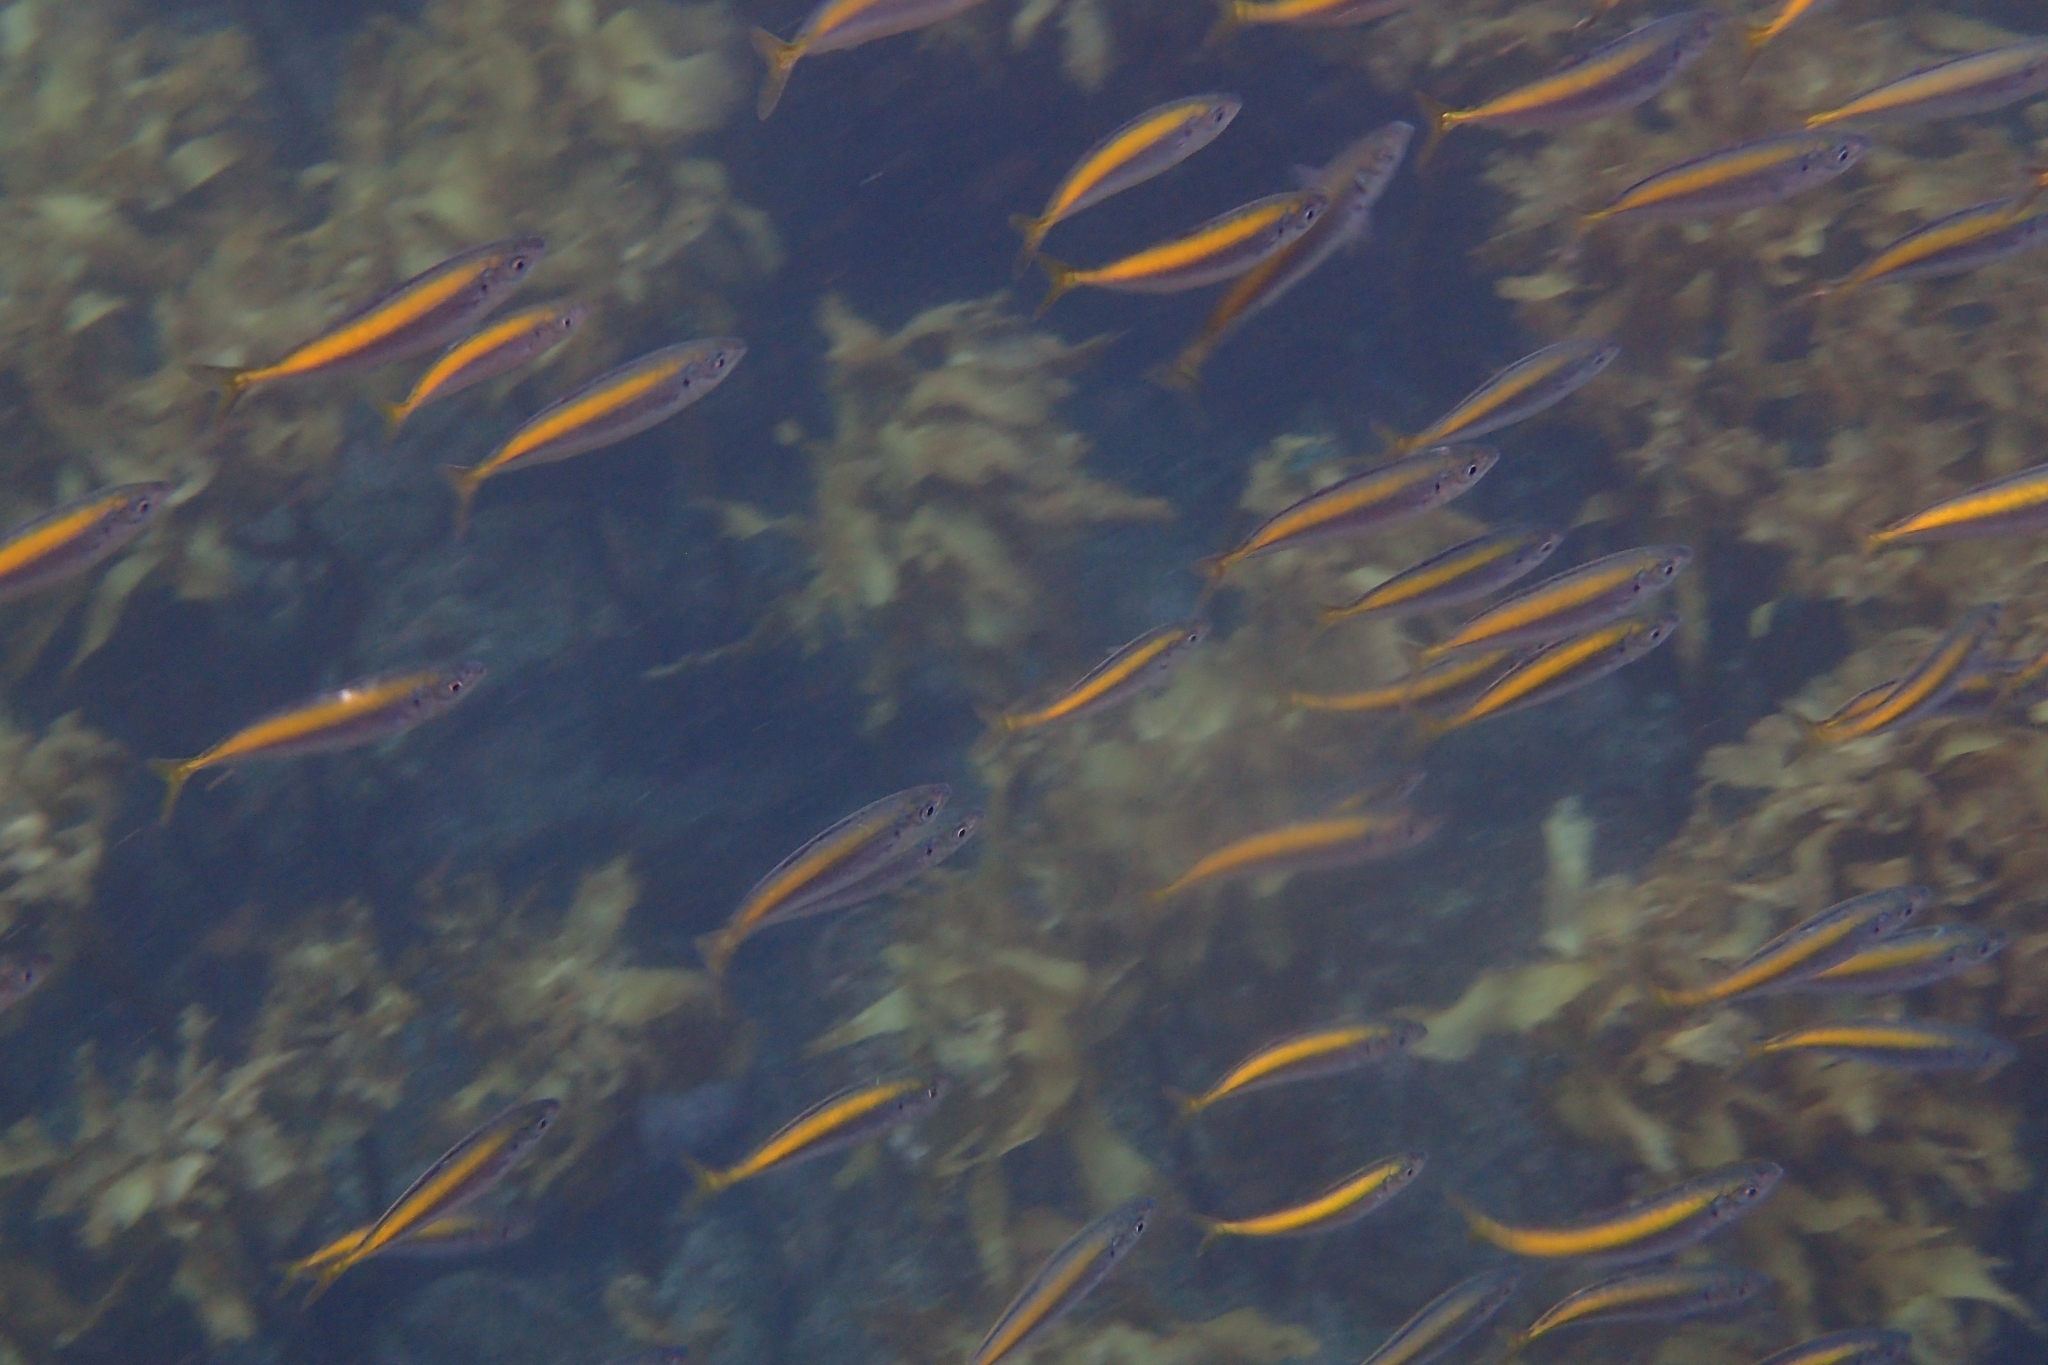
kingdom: Animalia
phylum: Chordata
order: Perciformes
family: Carangidae
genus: Decapterus
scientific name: Decapterus koheru
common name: Koheru
